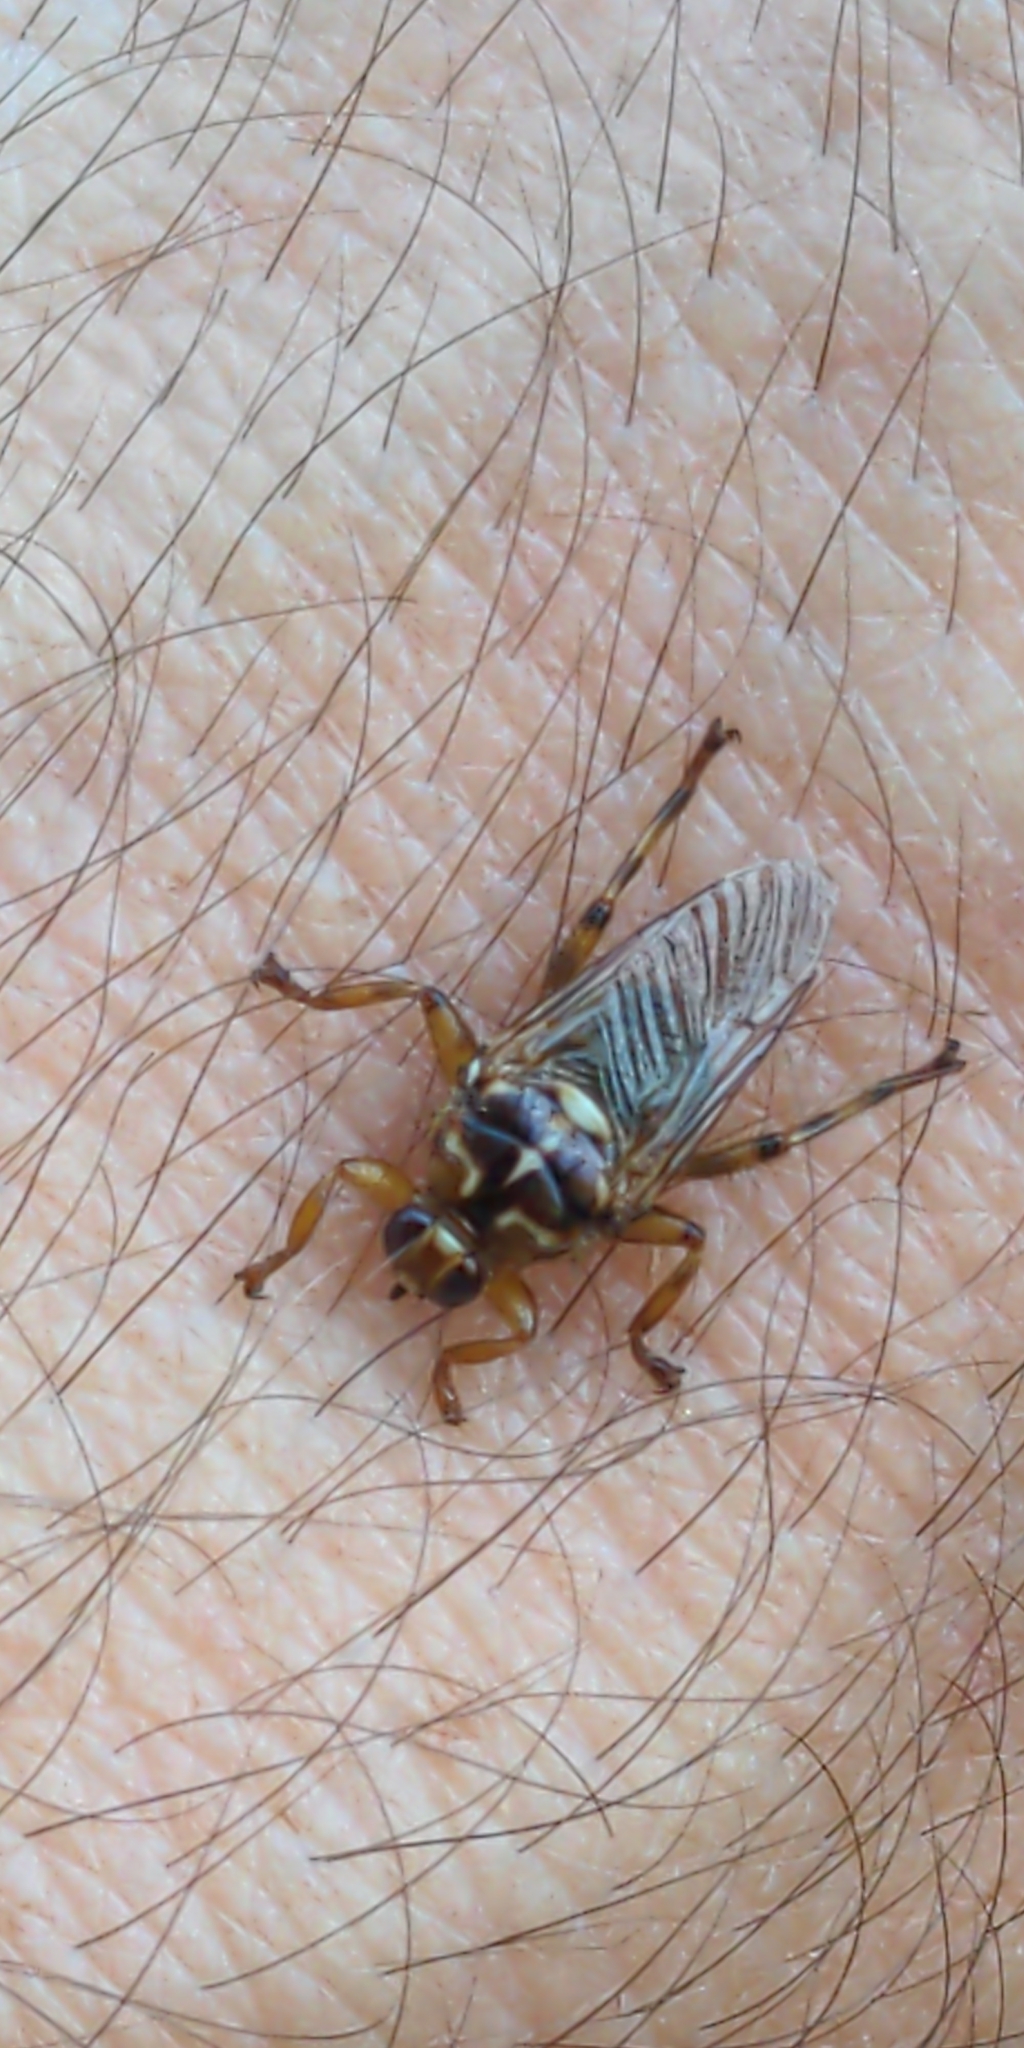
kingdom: Animalia
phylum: Arthropoda
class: Insecta
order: Diptera
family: Hippoboscidae
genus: Hippobosca
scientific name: Hippobosca equina
